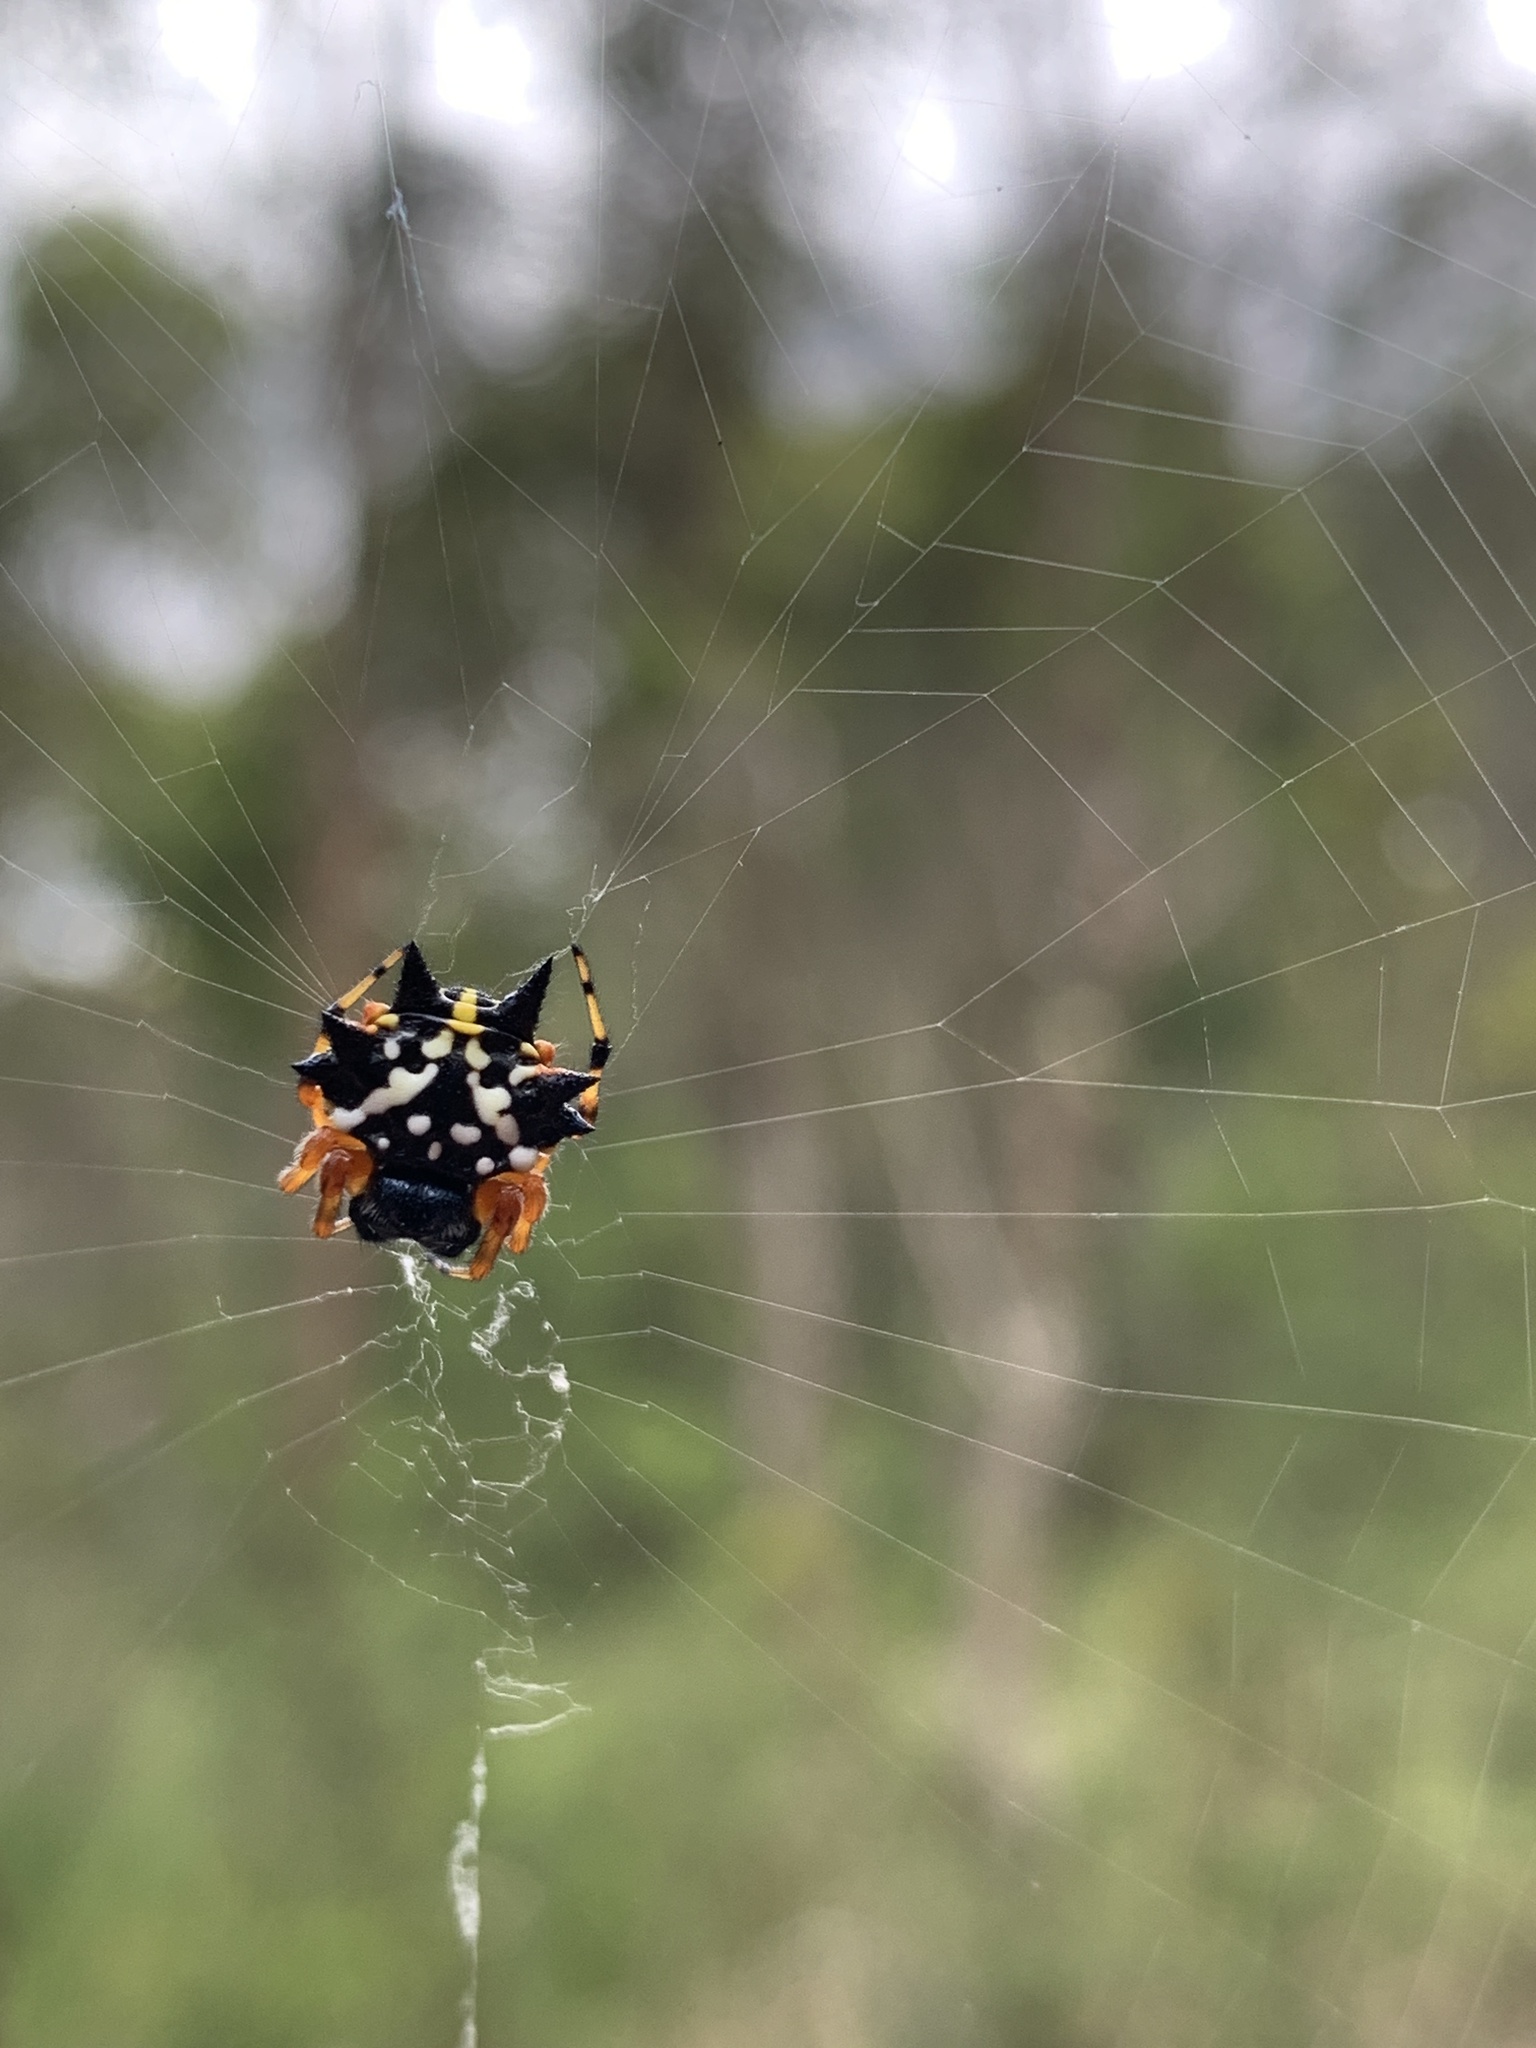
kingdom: Animalia
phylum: Arthropoda
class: Arachnida
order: Araneae
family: Araneidae
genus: Austracantha
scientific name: Austracantha minax
